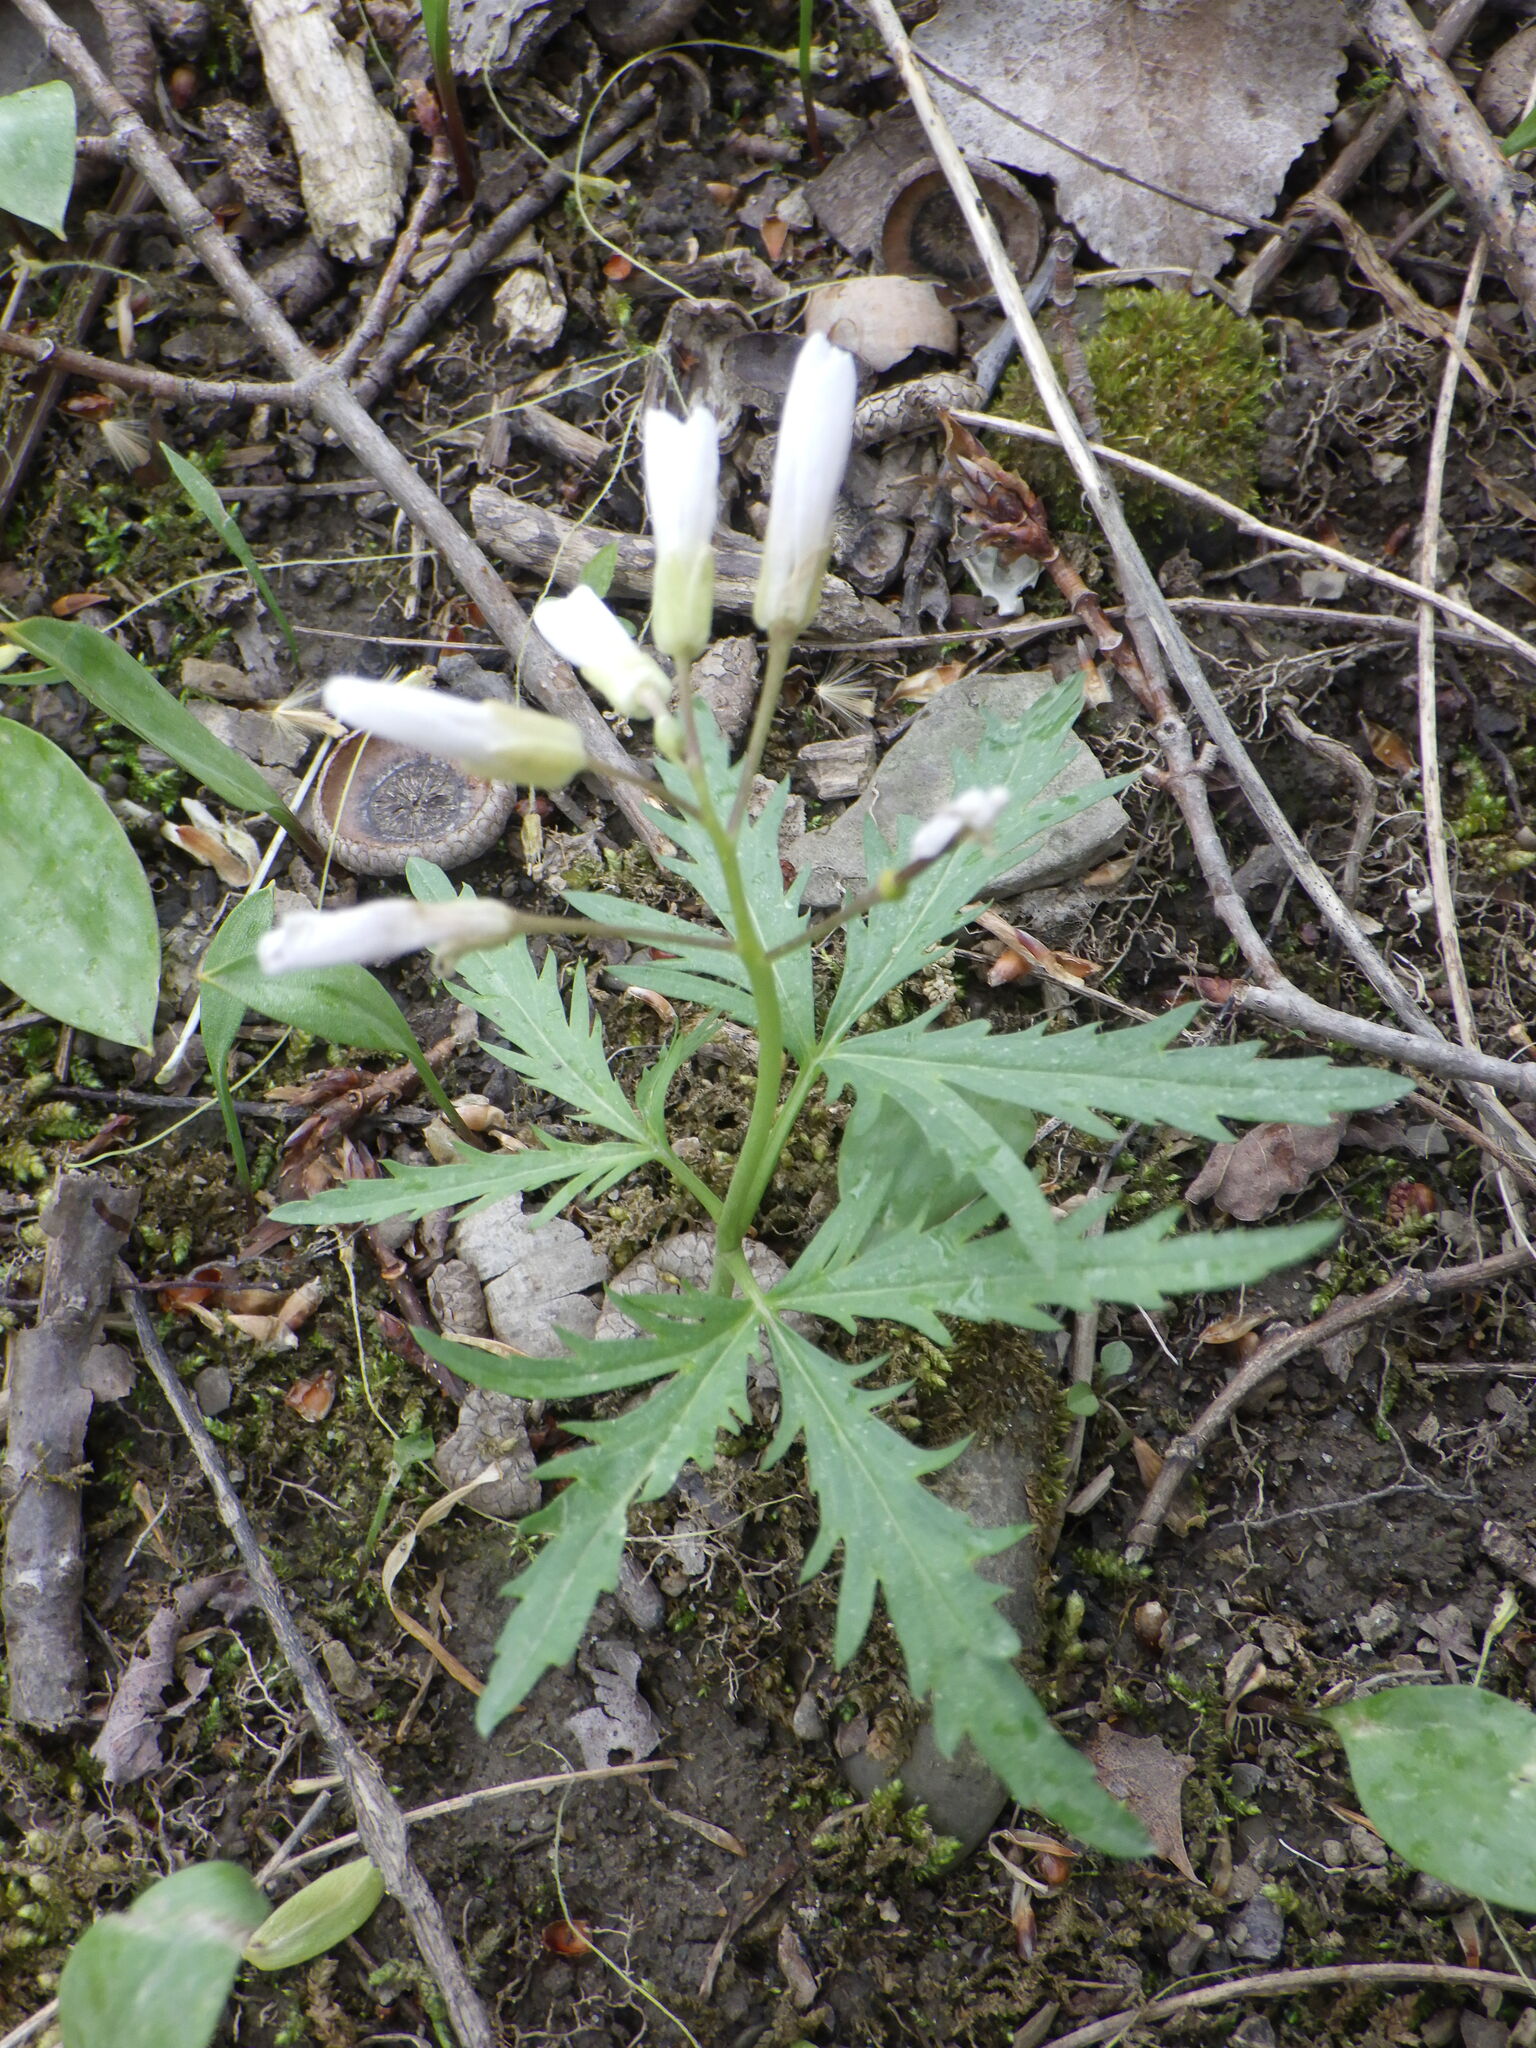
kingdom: Plantae
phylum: Tracheophyta
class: Magnoliopsida
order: Brassicales
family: Brassicaceae
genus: Cardamine
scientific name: Cardamine concatenata
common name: Cut-leaf toothcup
